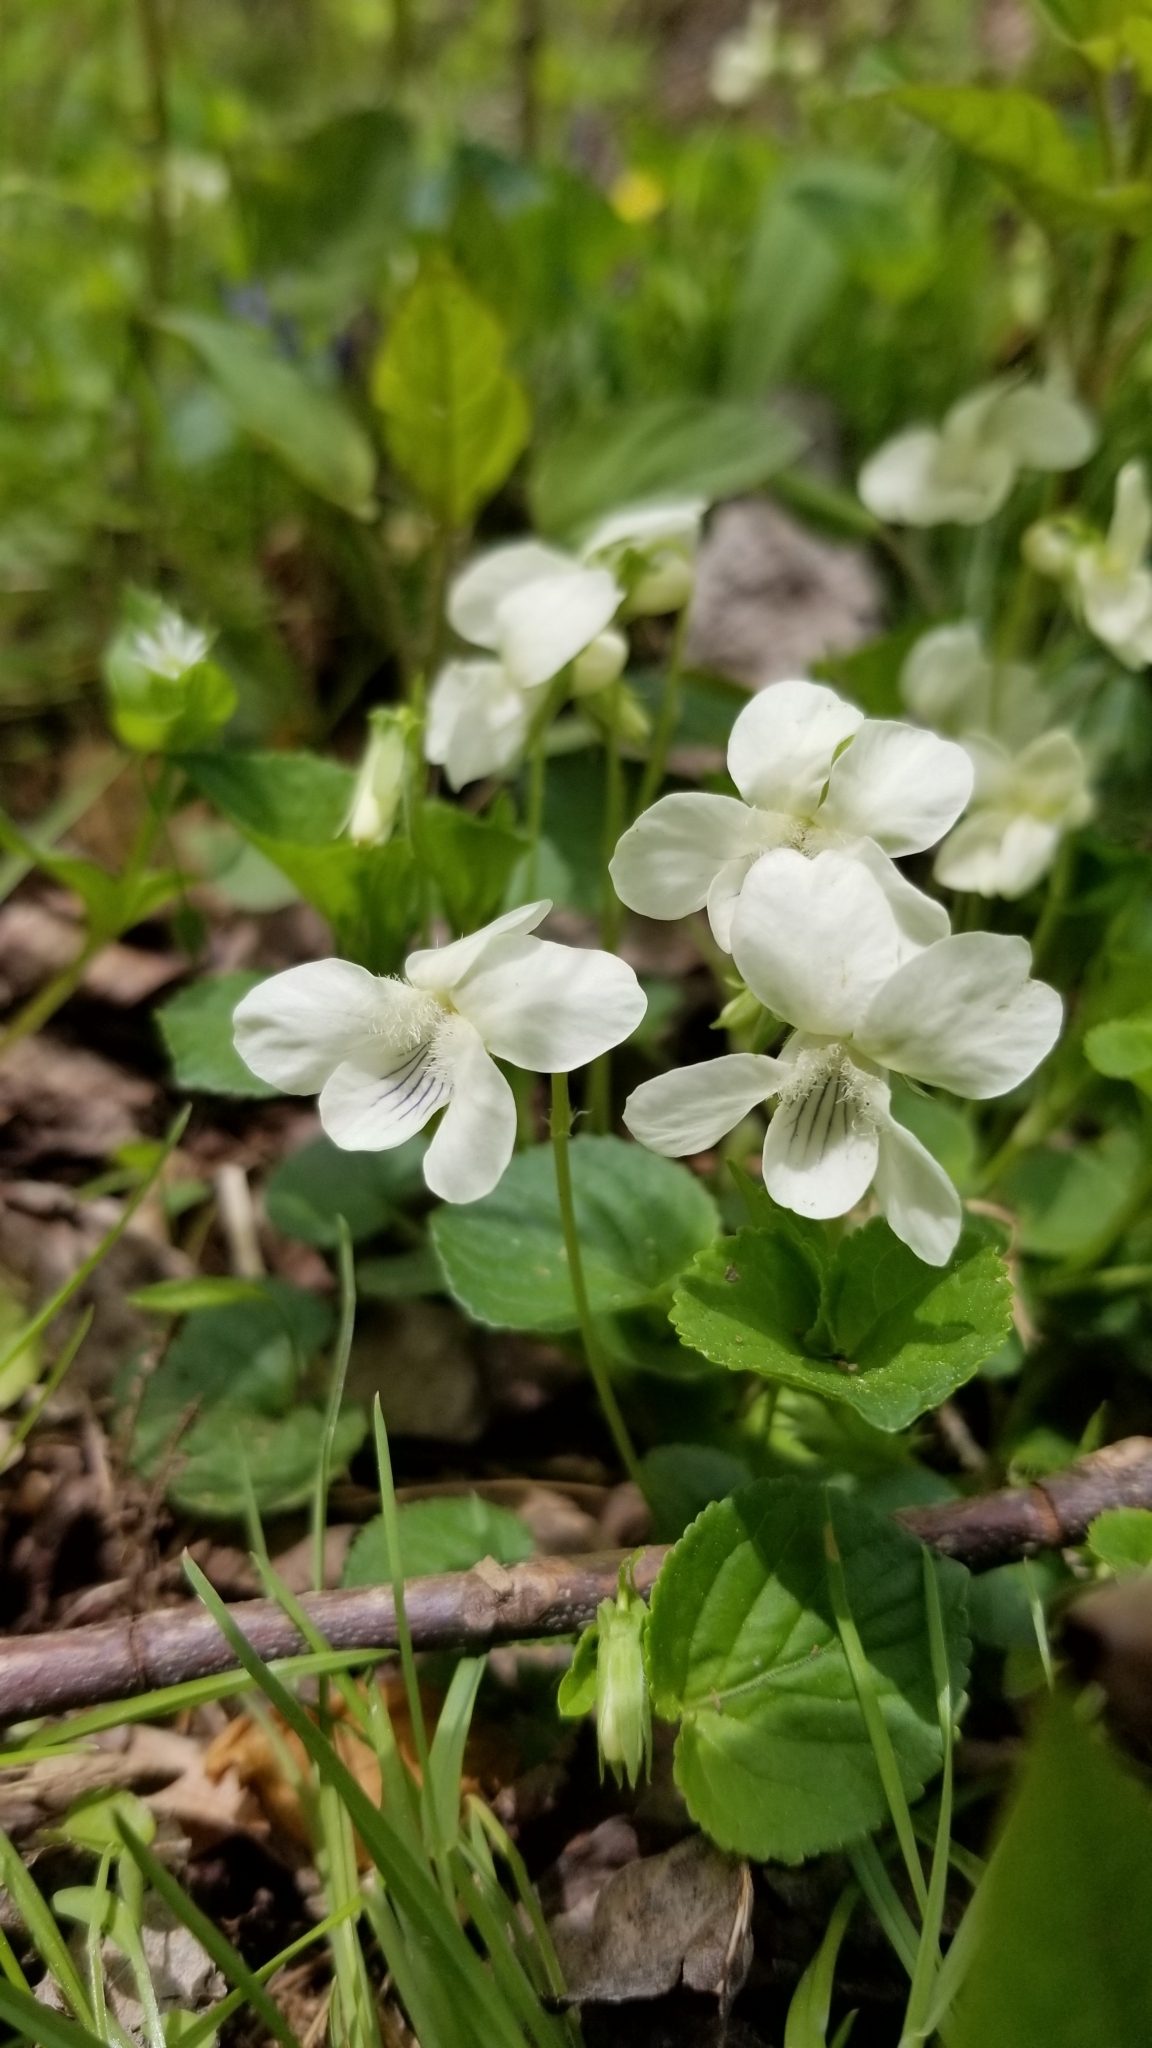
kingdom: Plantae
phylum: Tracheophyta
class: Magnoliopsida
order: Malpighiales
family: Violaceae
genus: Viola
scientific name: Viola striata
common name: Cream violet
